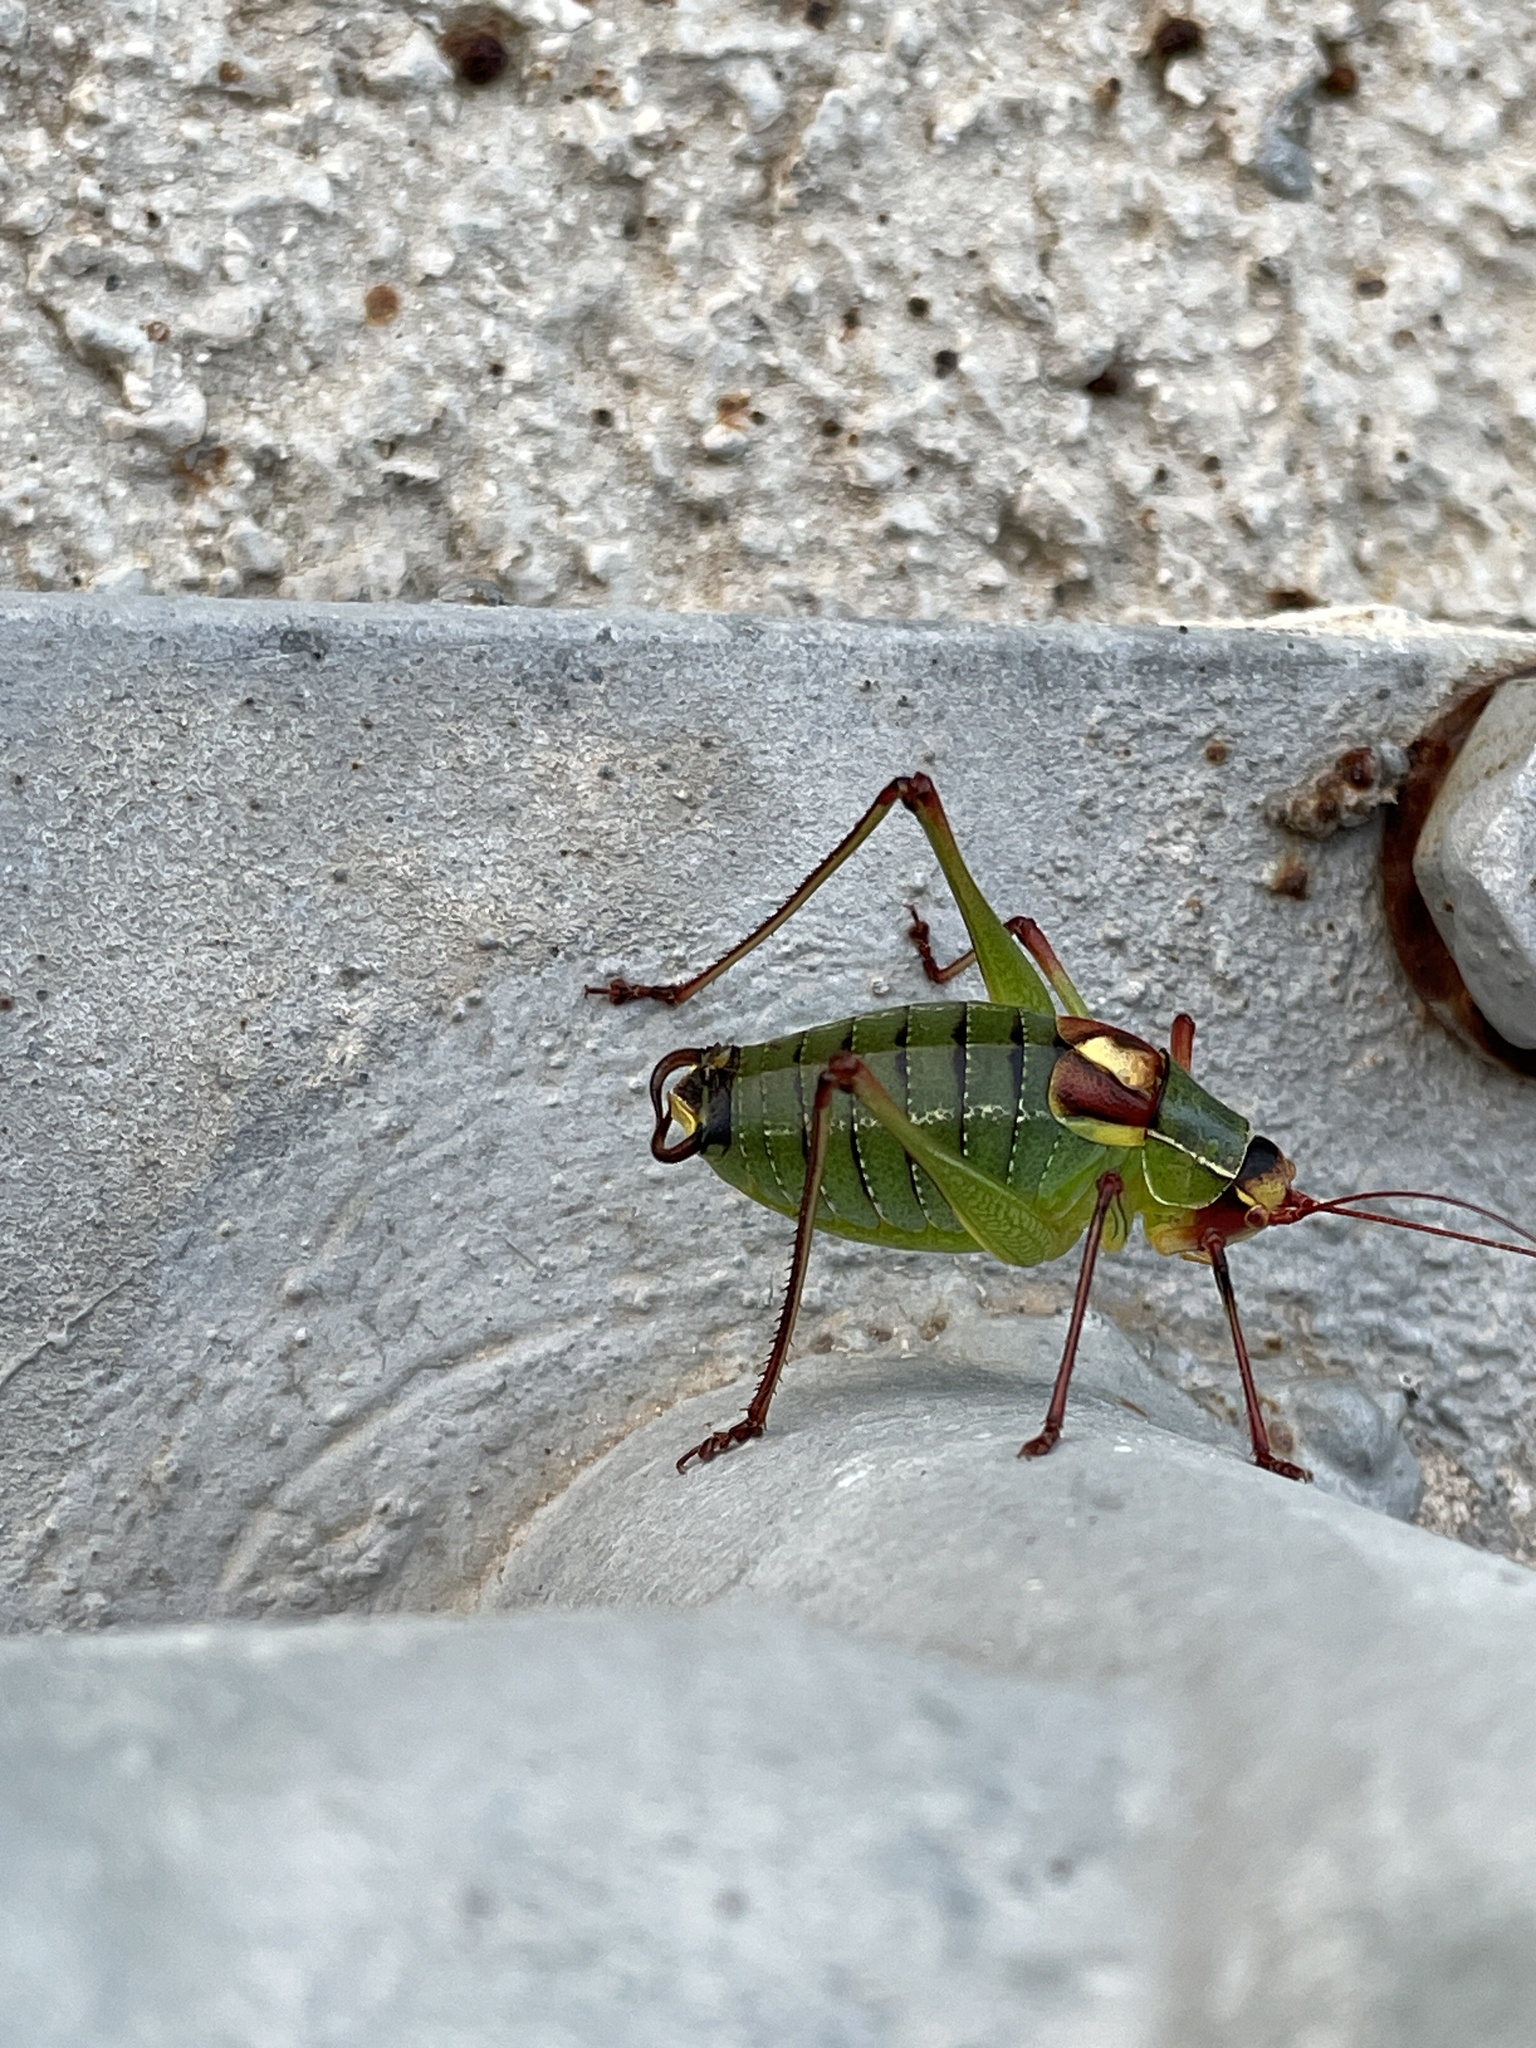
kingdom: Animalia
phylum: Arthropoda
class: Insecta
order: Orthoptera
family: Tettigoniidae
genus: Barbitistes
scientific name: Barbitistes yersini
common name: Balkan saw bush-cricket
